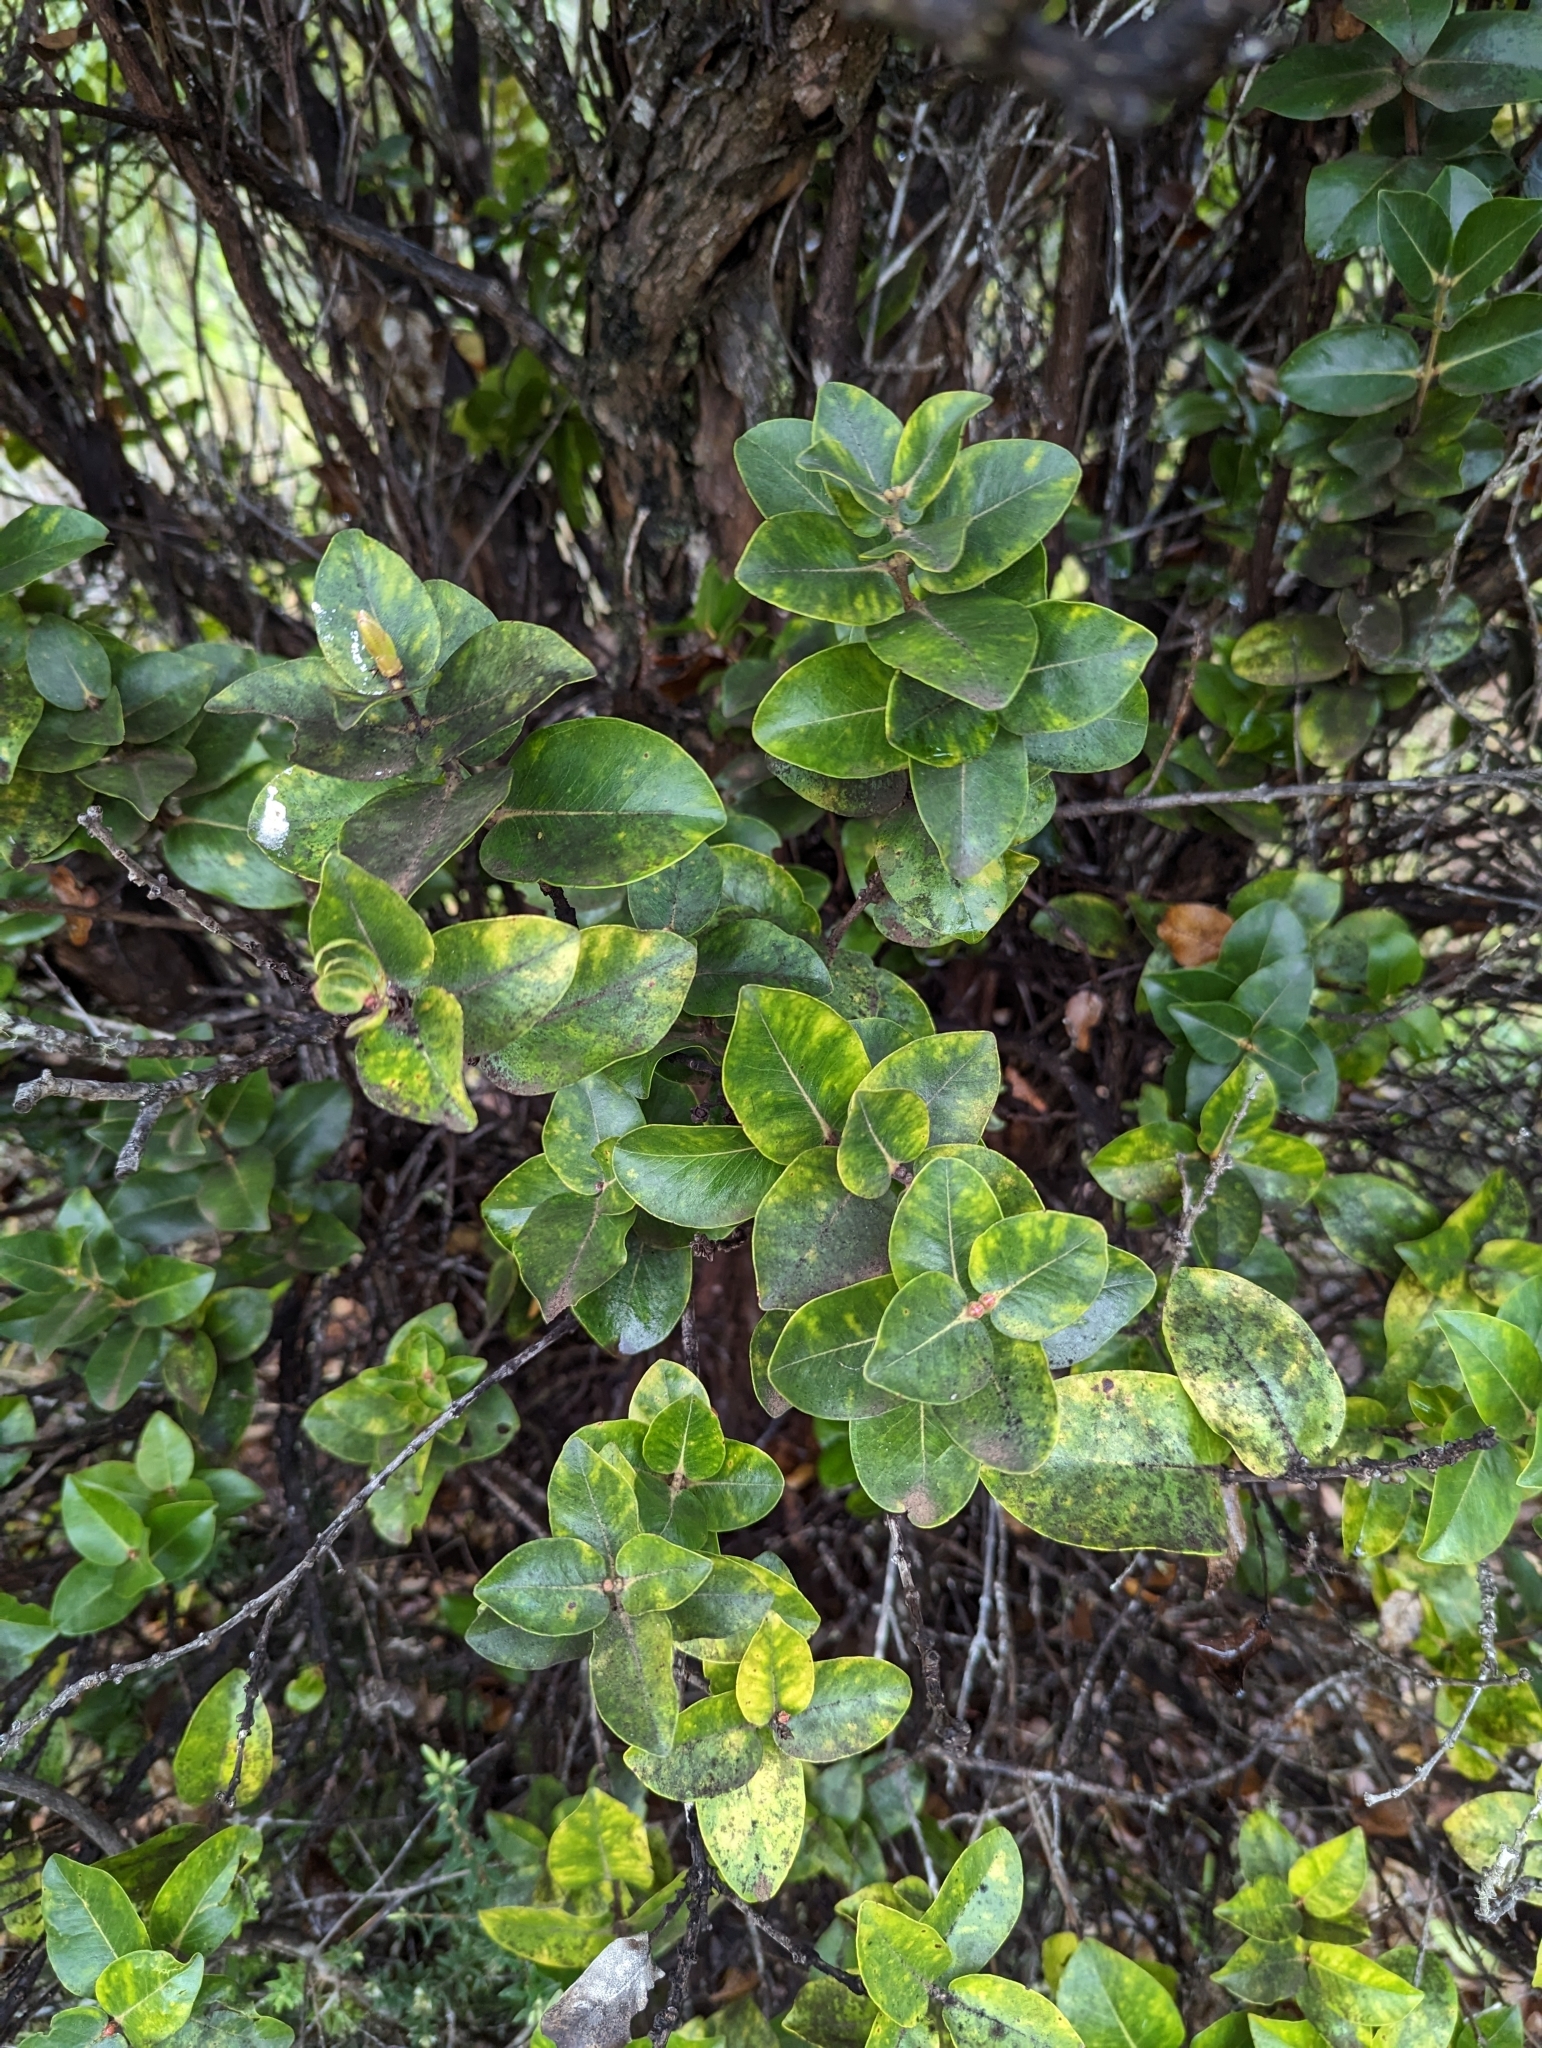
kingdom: Plantae
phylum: Tracheophyta
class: Magnoliopsida
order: Myrtales
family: Myrtaceae
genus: Metrosideros
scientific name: Metrosideros polymorpha
